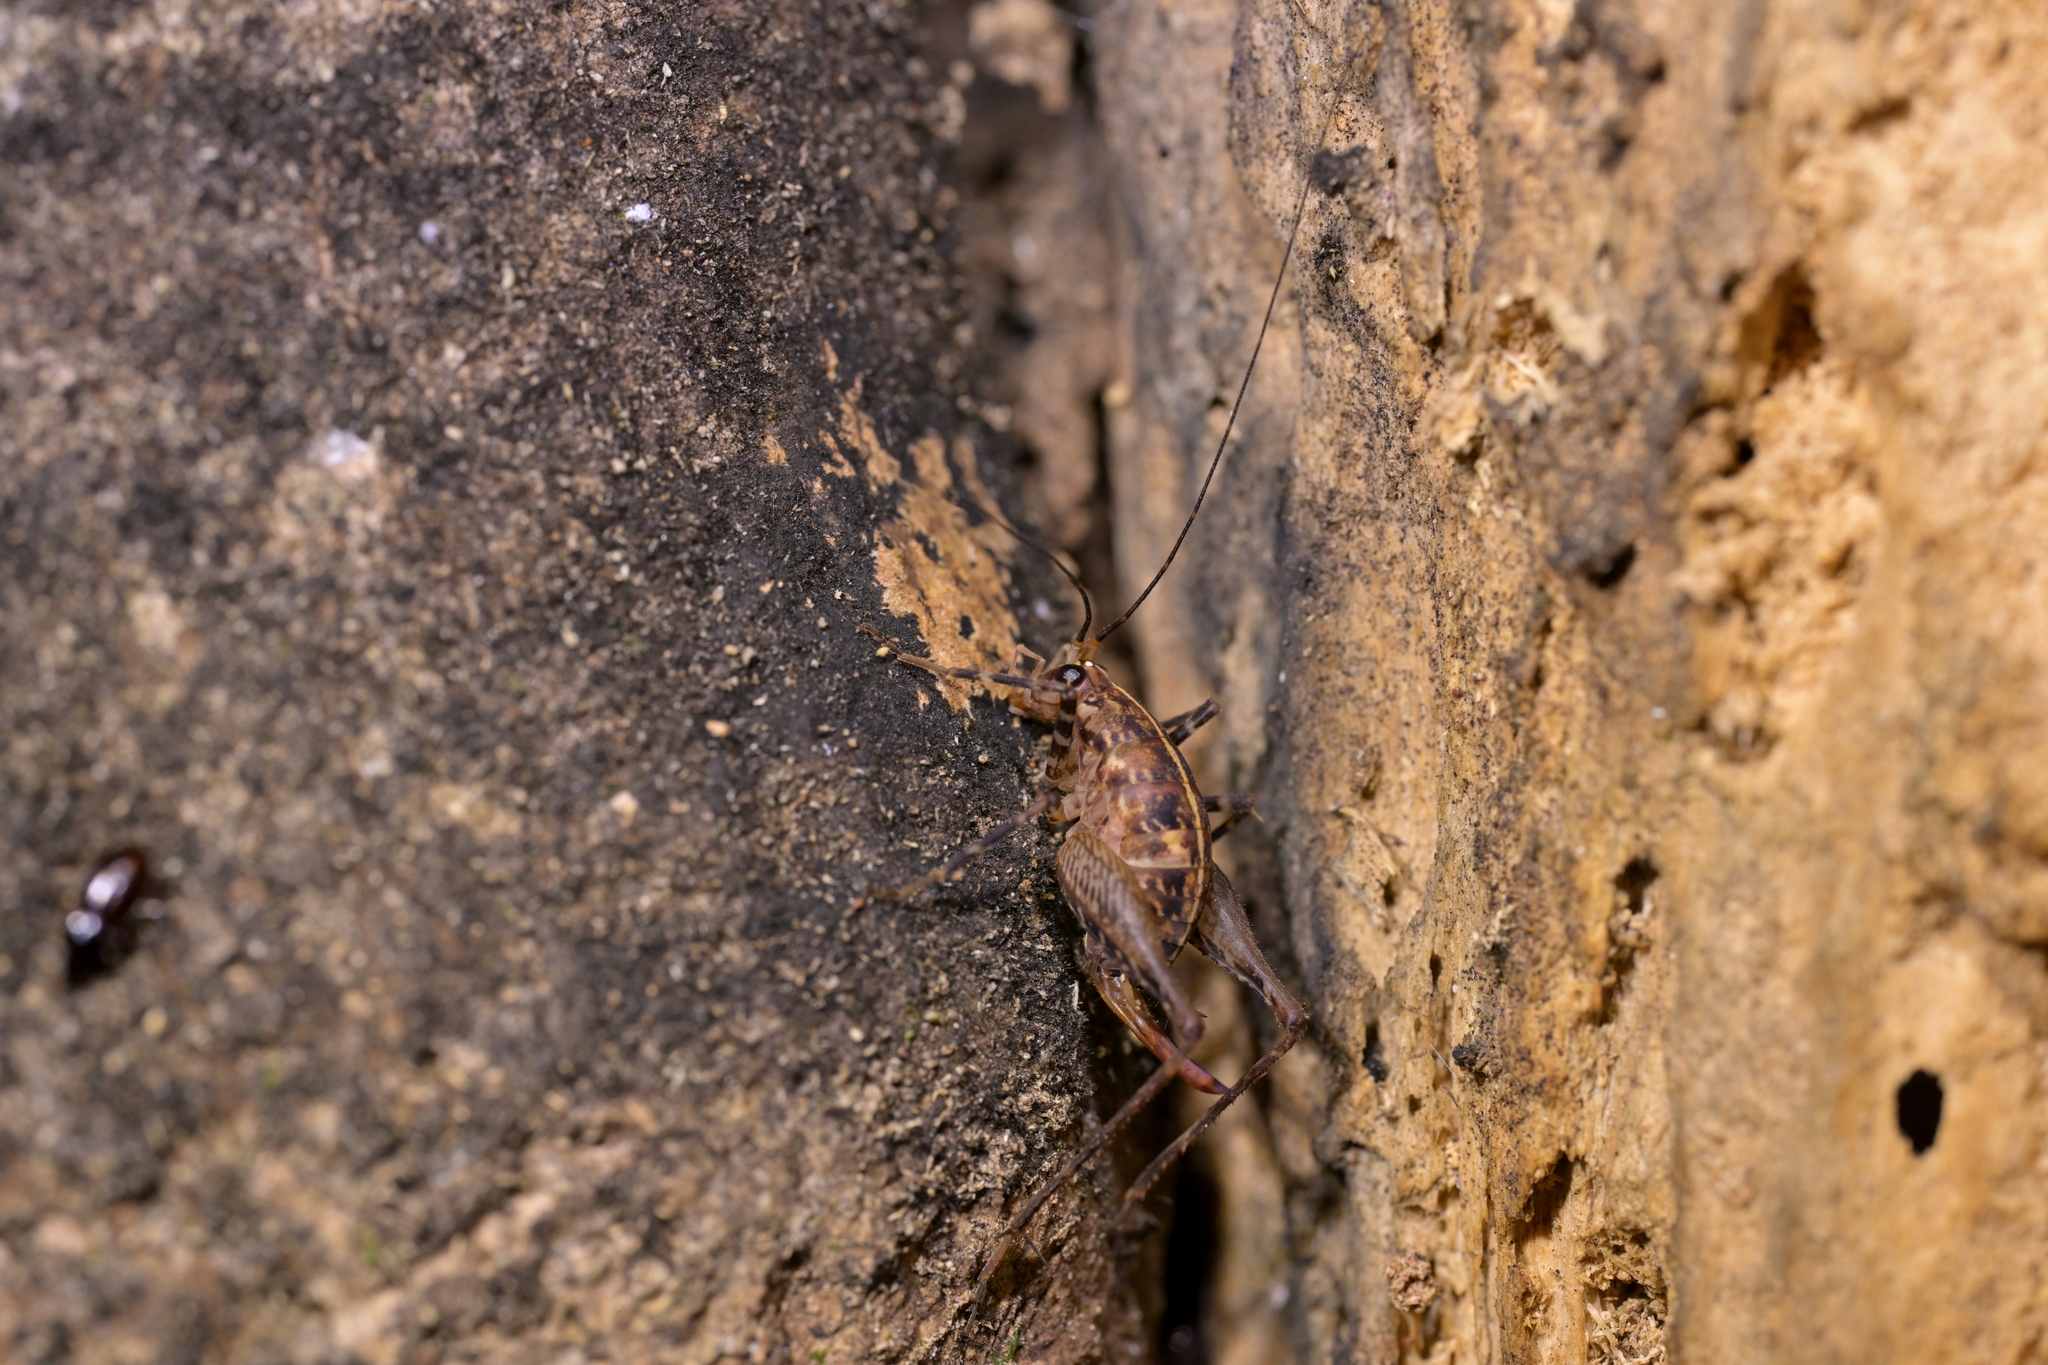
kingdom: Animalia
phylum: Arthropoda
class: Insecta
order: Orthoptera
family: Rhaphidophoridae
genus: Pleioplectron
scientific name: Pleioplectron hudsoni
